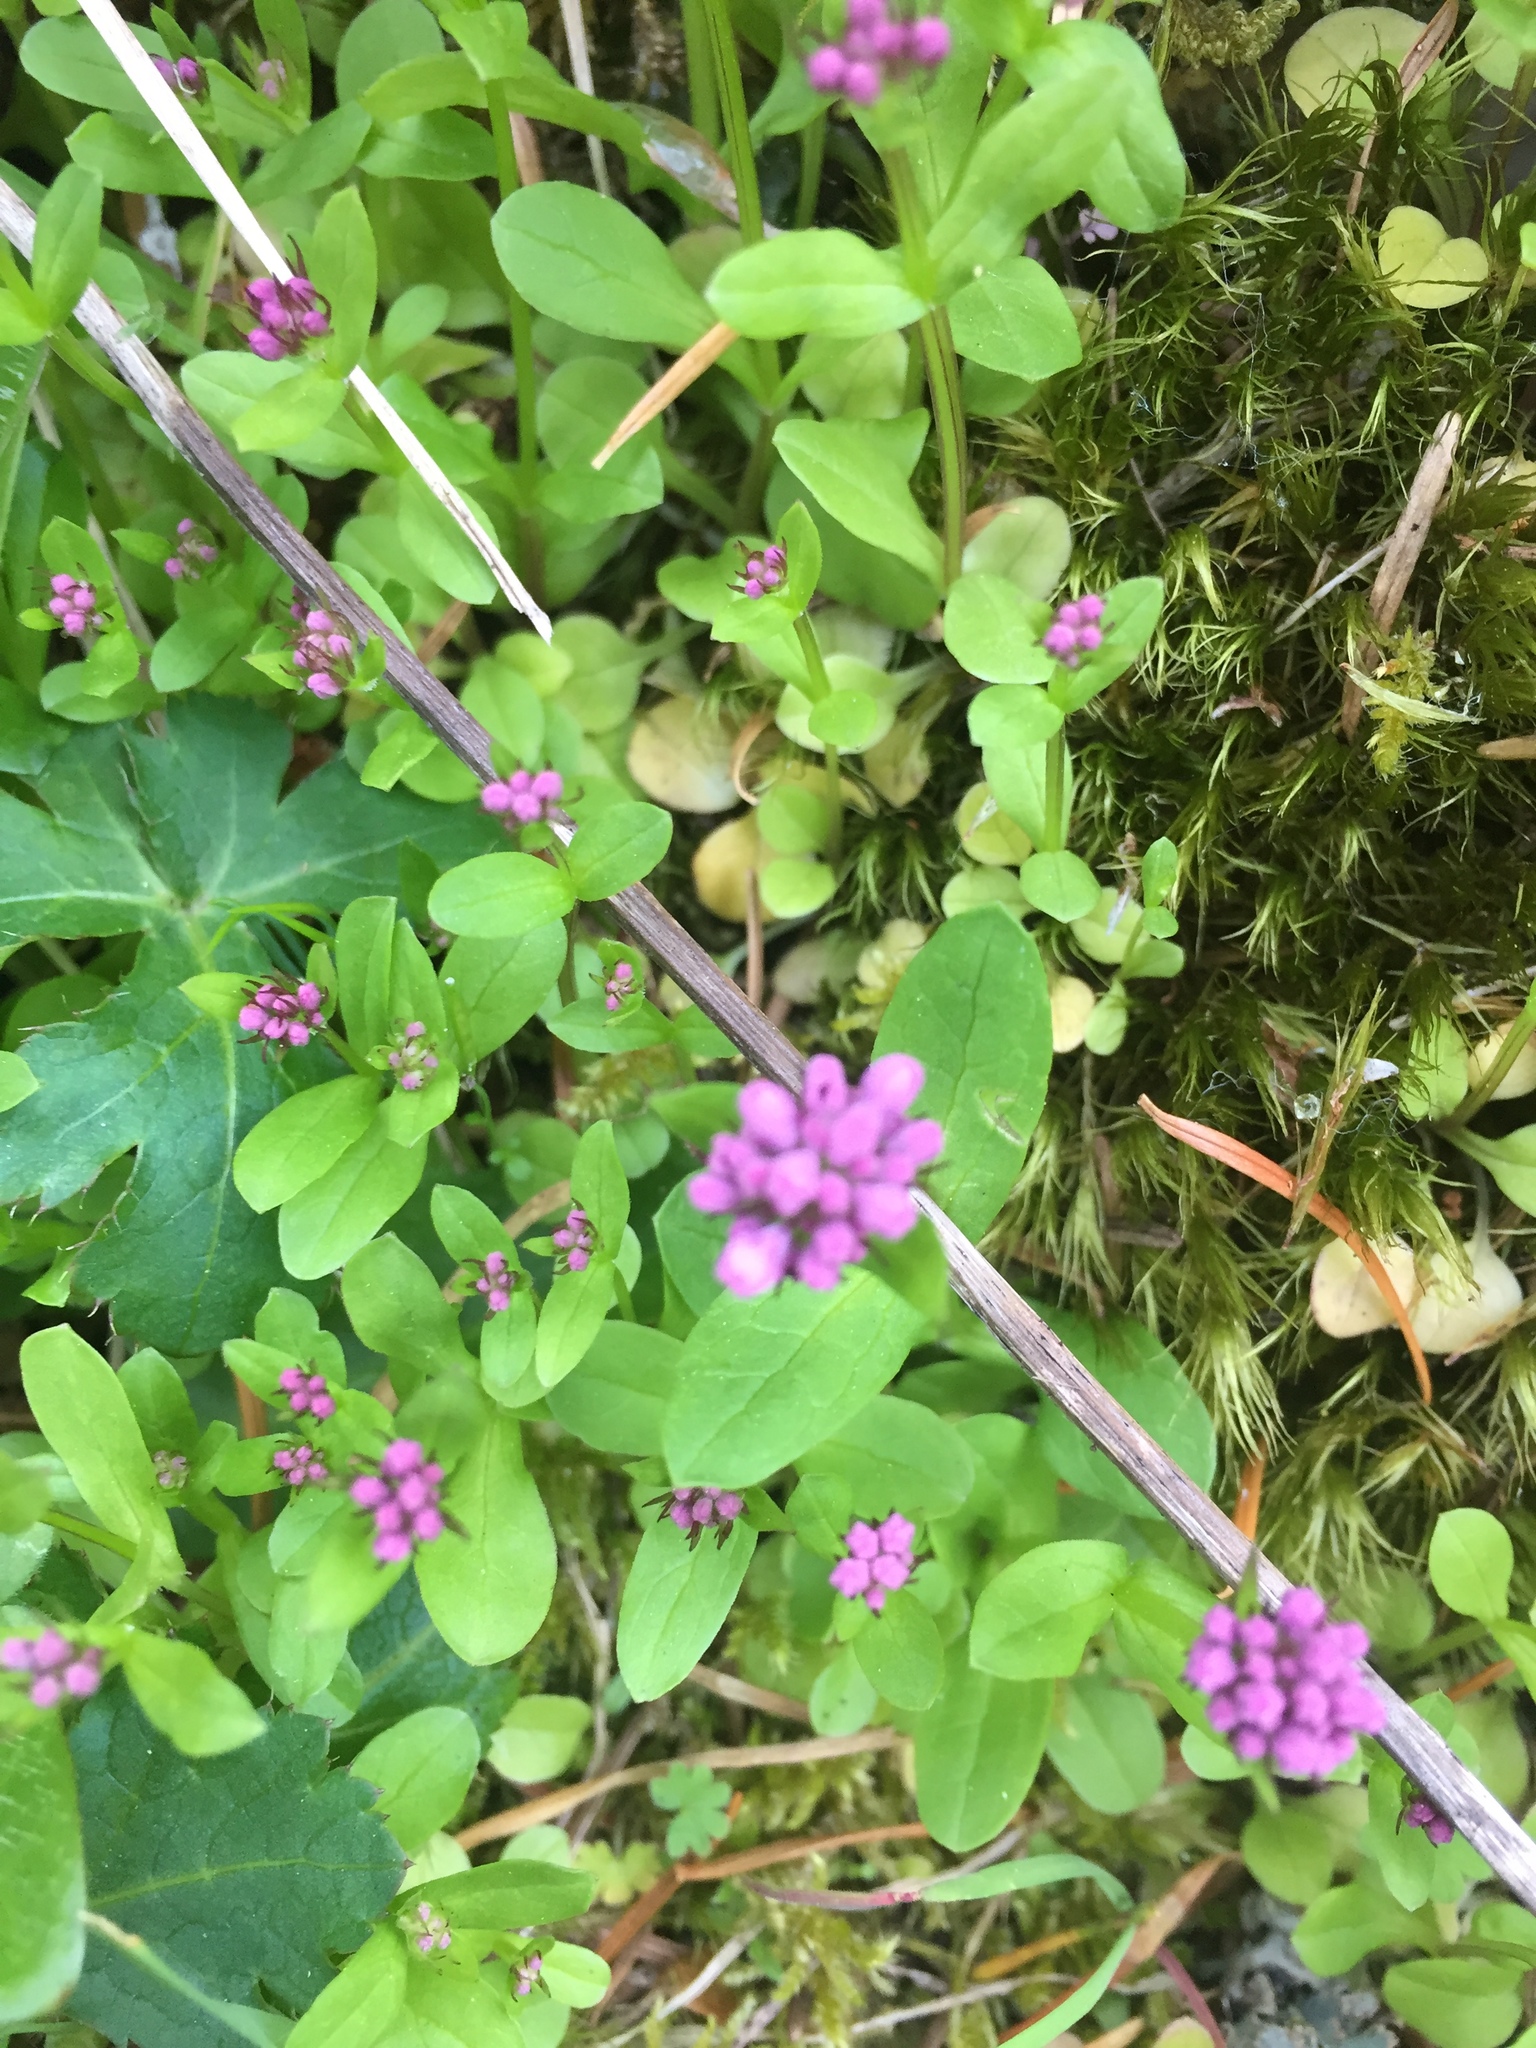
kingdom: Plantae
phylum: Tracheophyta
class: Magnoliopsida
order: Dipsacales
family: Caprifoliaceae
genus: Plectritis
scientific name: Plectritis congesta
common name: Pink plectritis
